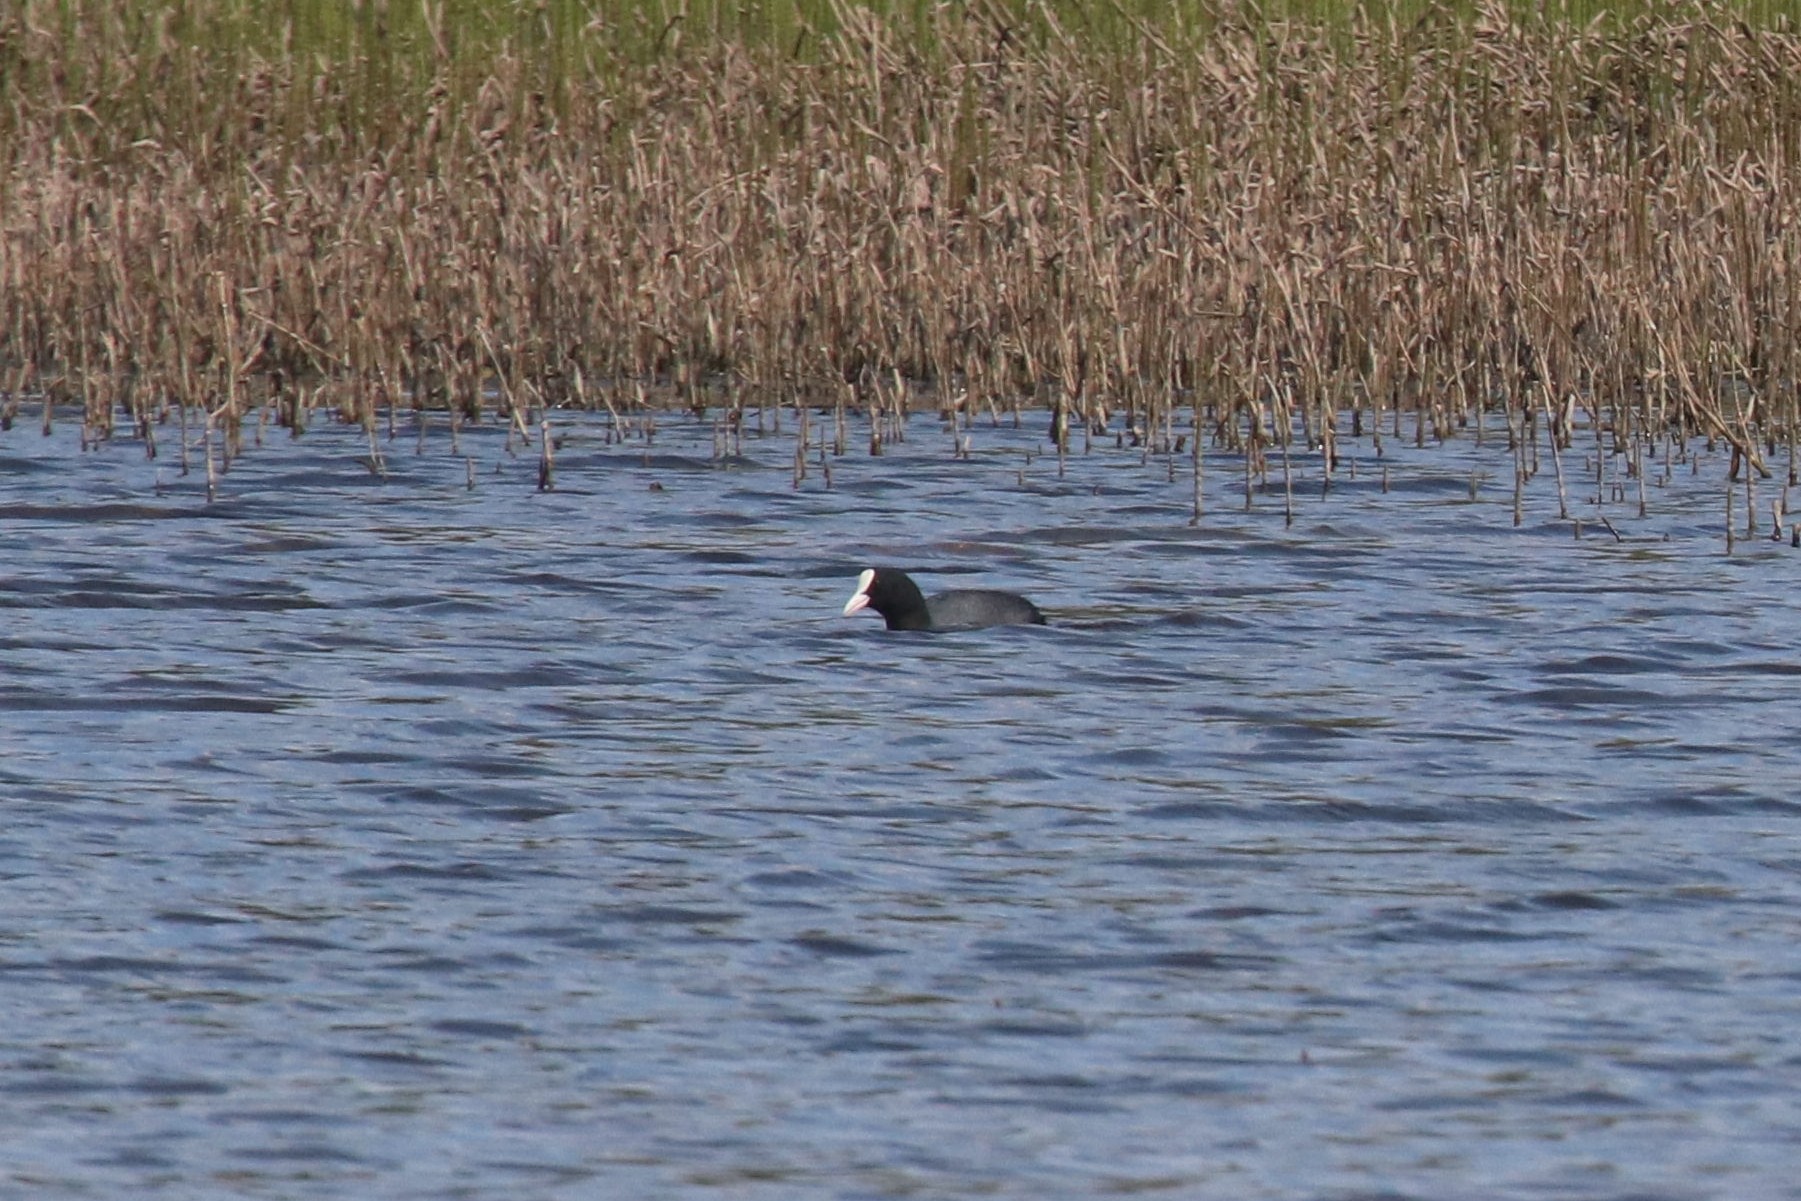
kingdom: Animalia
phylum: Chordata
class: Aves
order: Gruiformes
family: Rallidae
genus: Fulica
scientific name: Fulica atra
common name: Eurasian coot
